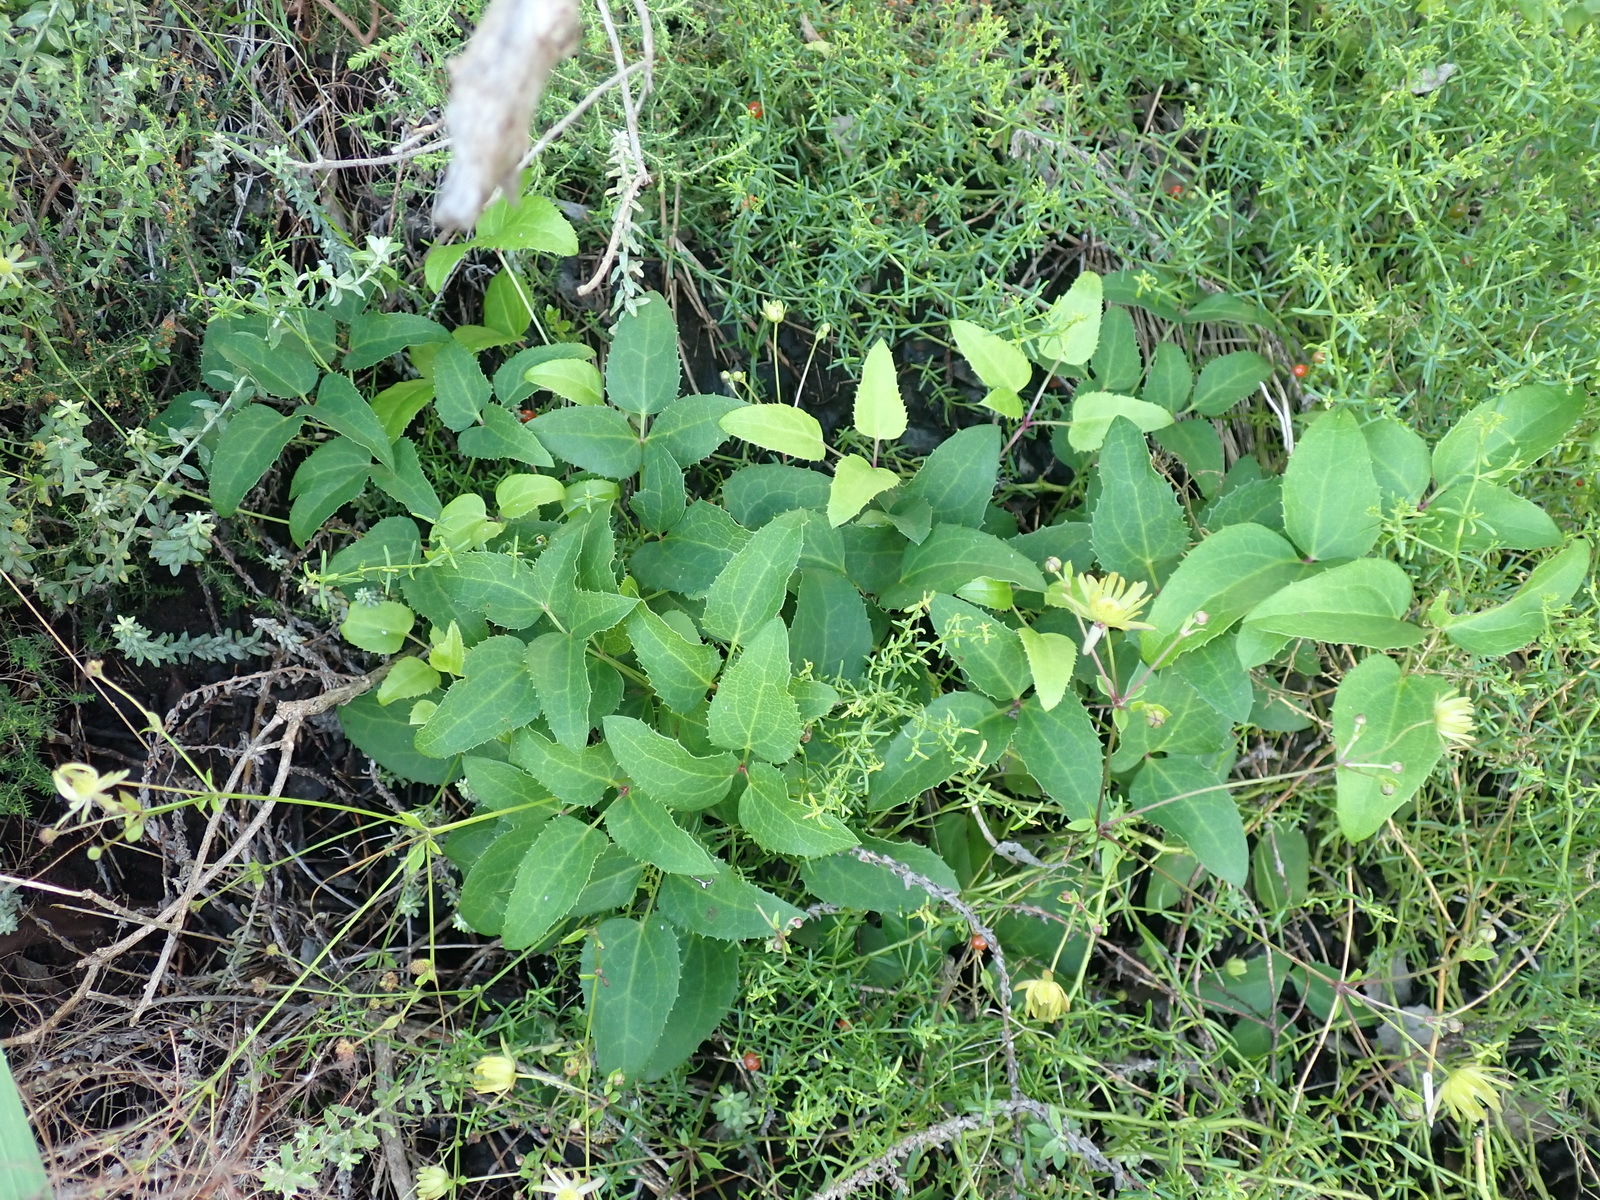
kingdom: Plantae
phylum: Tracheophyta
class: Magnoliopsida
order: Ranunculales
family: Ranunculaceae
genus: Knowltonia
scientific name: Knowltonia vesicatoria
